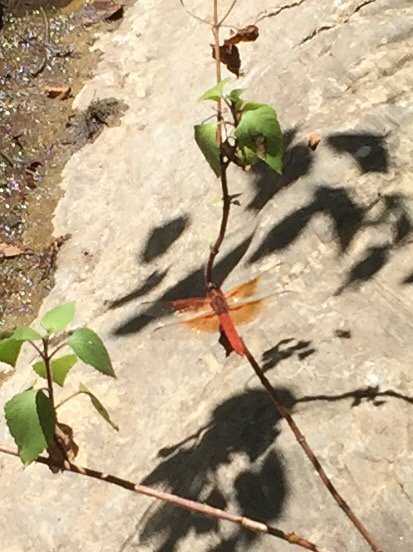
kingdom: Animalia
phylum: Arthropoda
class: Insecta
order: Odonata
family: Libellulidae
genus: Libellula
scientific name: Libellula saturata
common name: Flame skimmer
